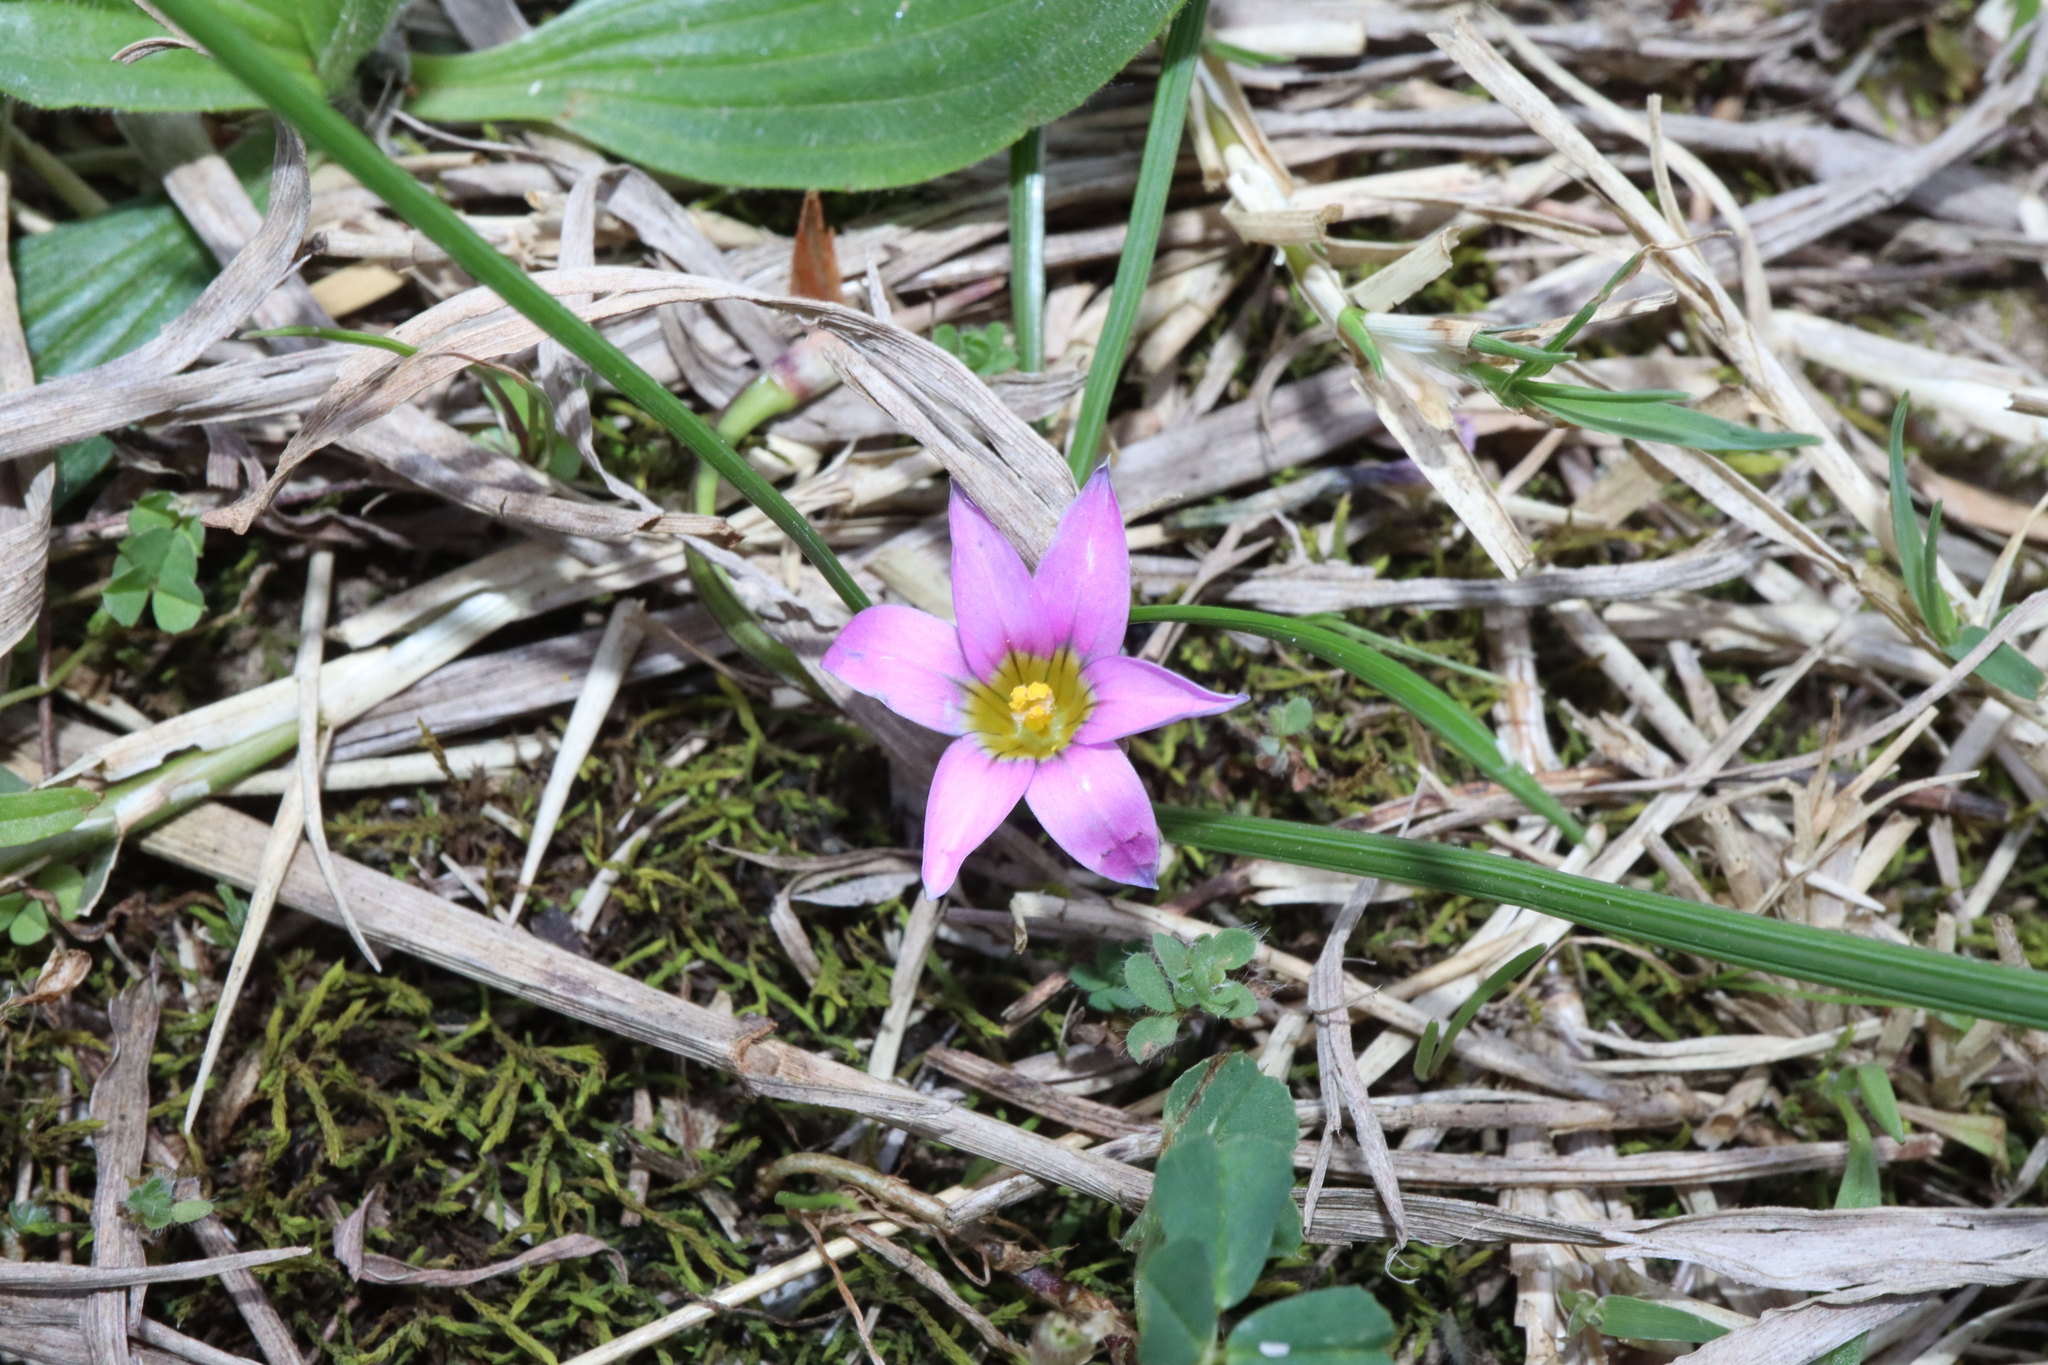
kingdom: Plantae
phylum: Tracheophyta
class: Liliopsida
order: Asparagales
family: Iridaceae
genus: Romulea
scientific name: Romulea rosea
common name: Oniongrass
